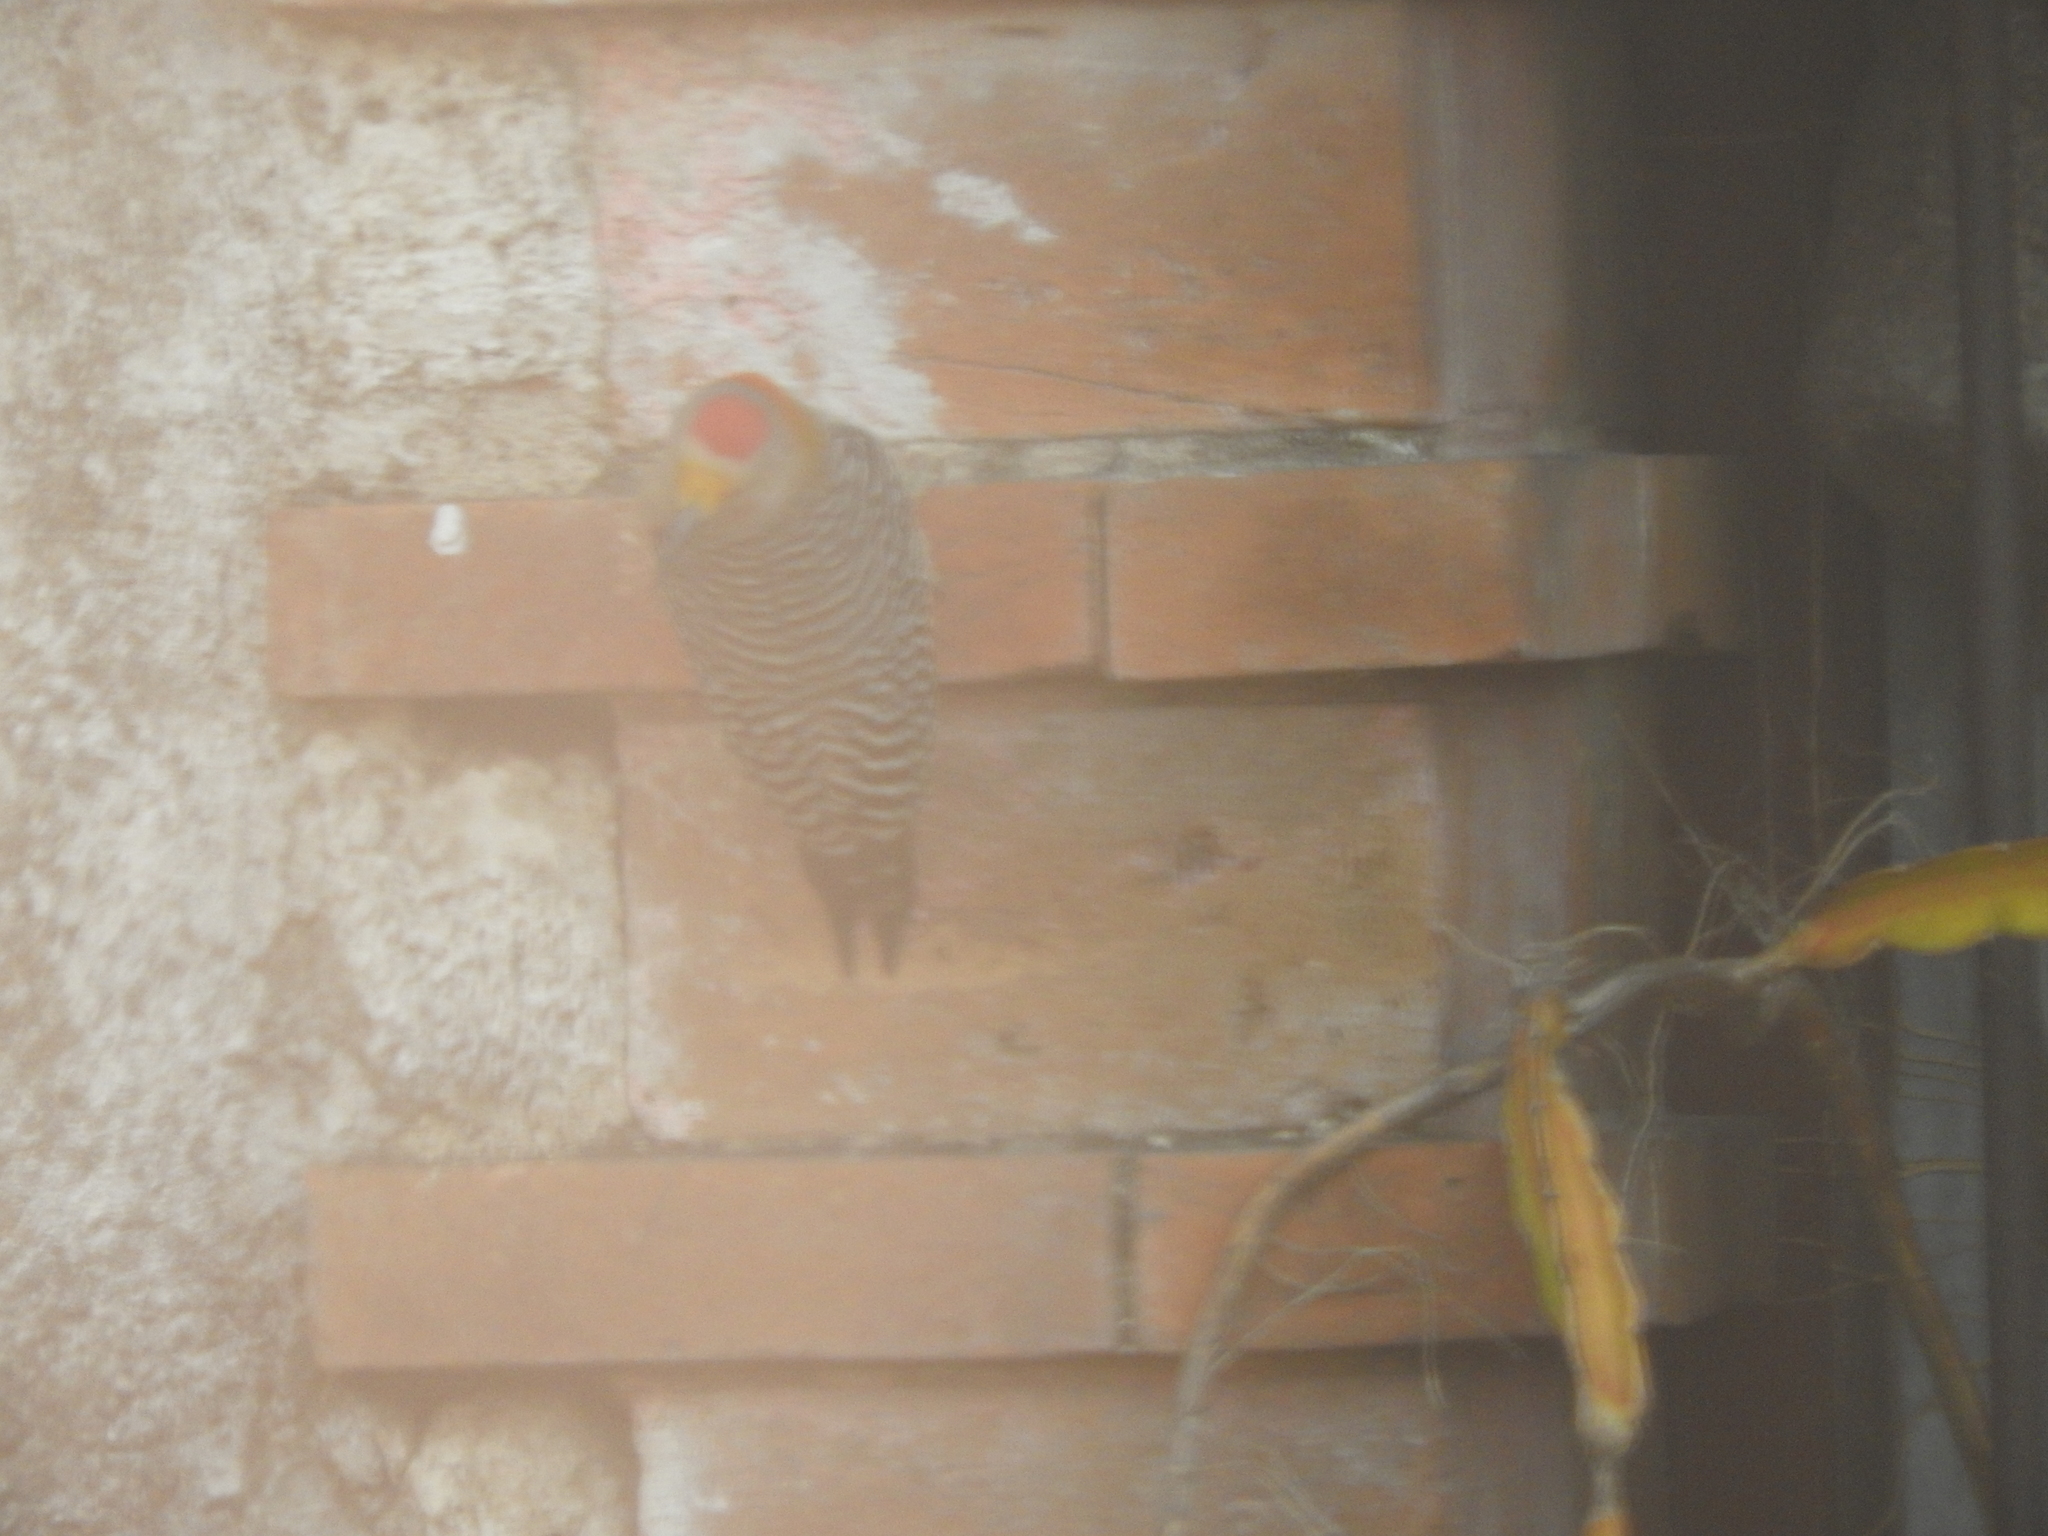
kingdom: Animalia
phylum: Chordata
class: Aves
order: Piciformes
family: Picidae
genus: Melanerpes
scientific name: Melanerpes aurifrons
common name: Golden-fronted woodpecker
